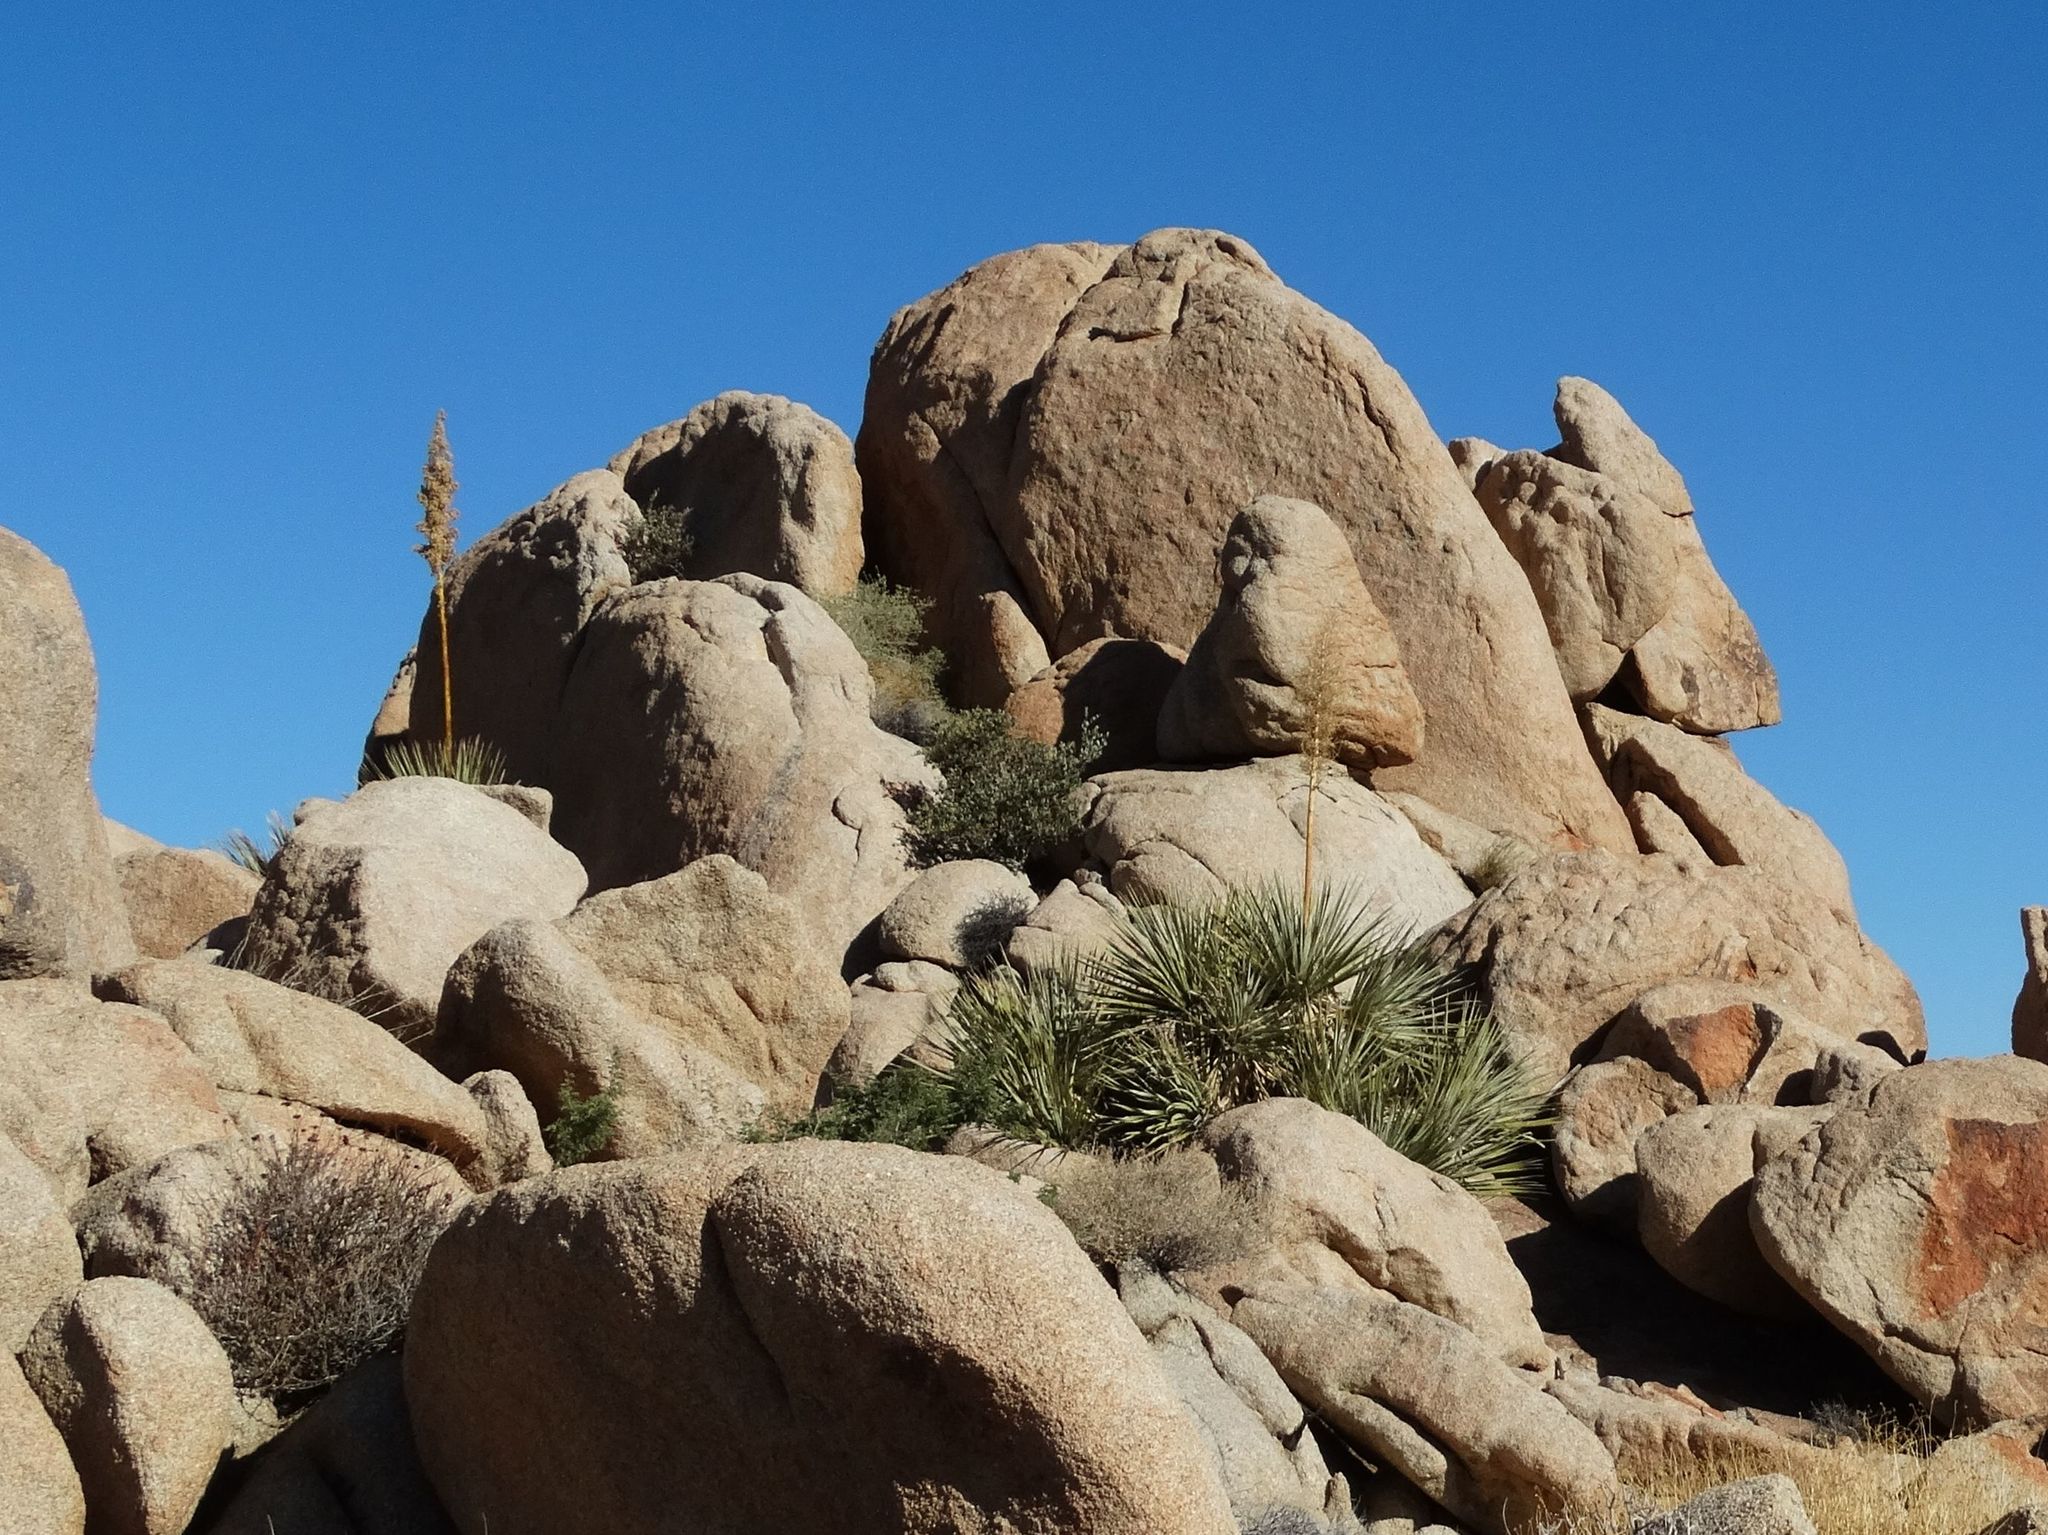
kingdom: Plantae
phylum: Tracheophyta
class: Liliopsida
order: Asparagales
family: Asparagaceae
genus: Nolina
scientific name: Nolina bigelovii
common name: Bigelow bear-grass
